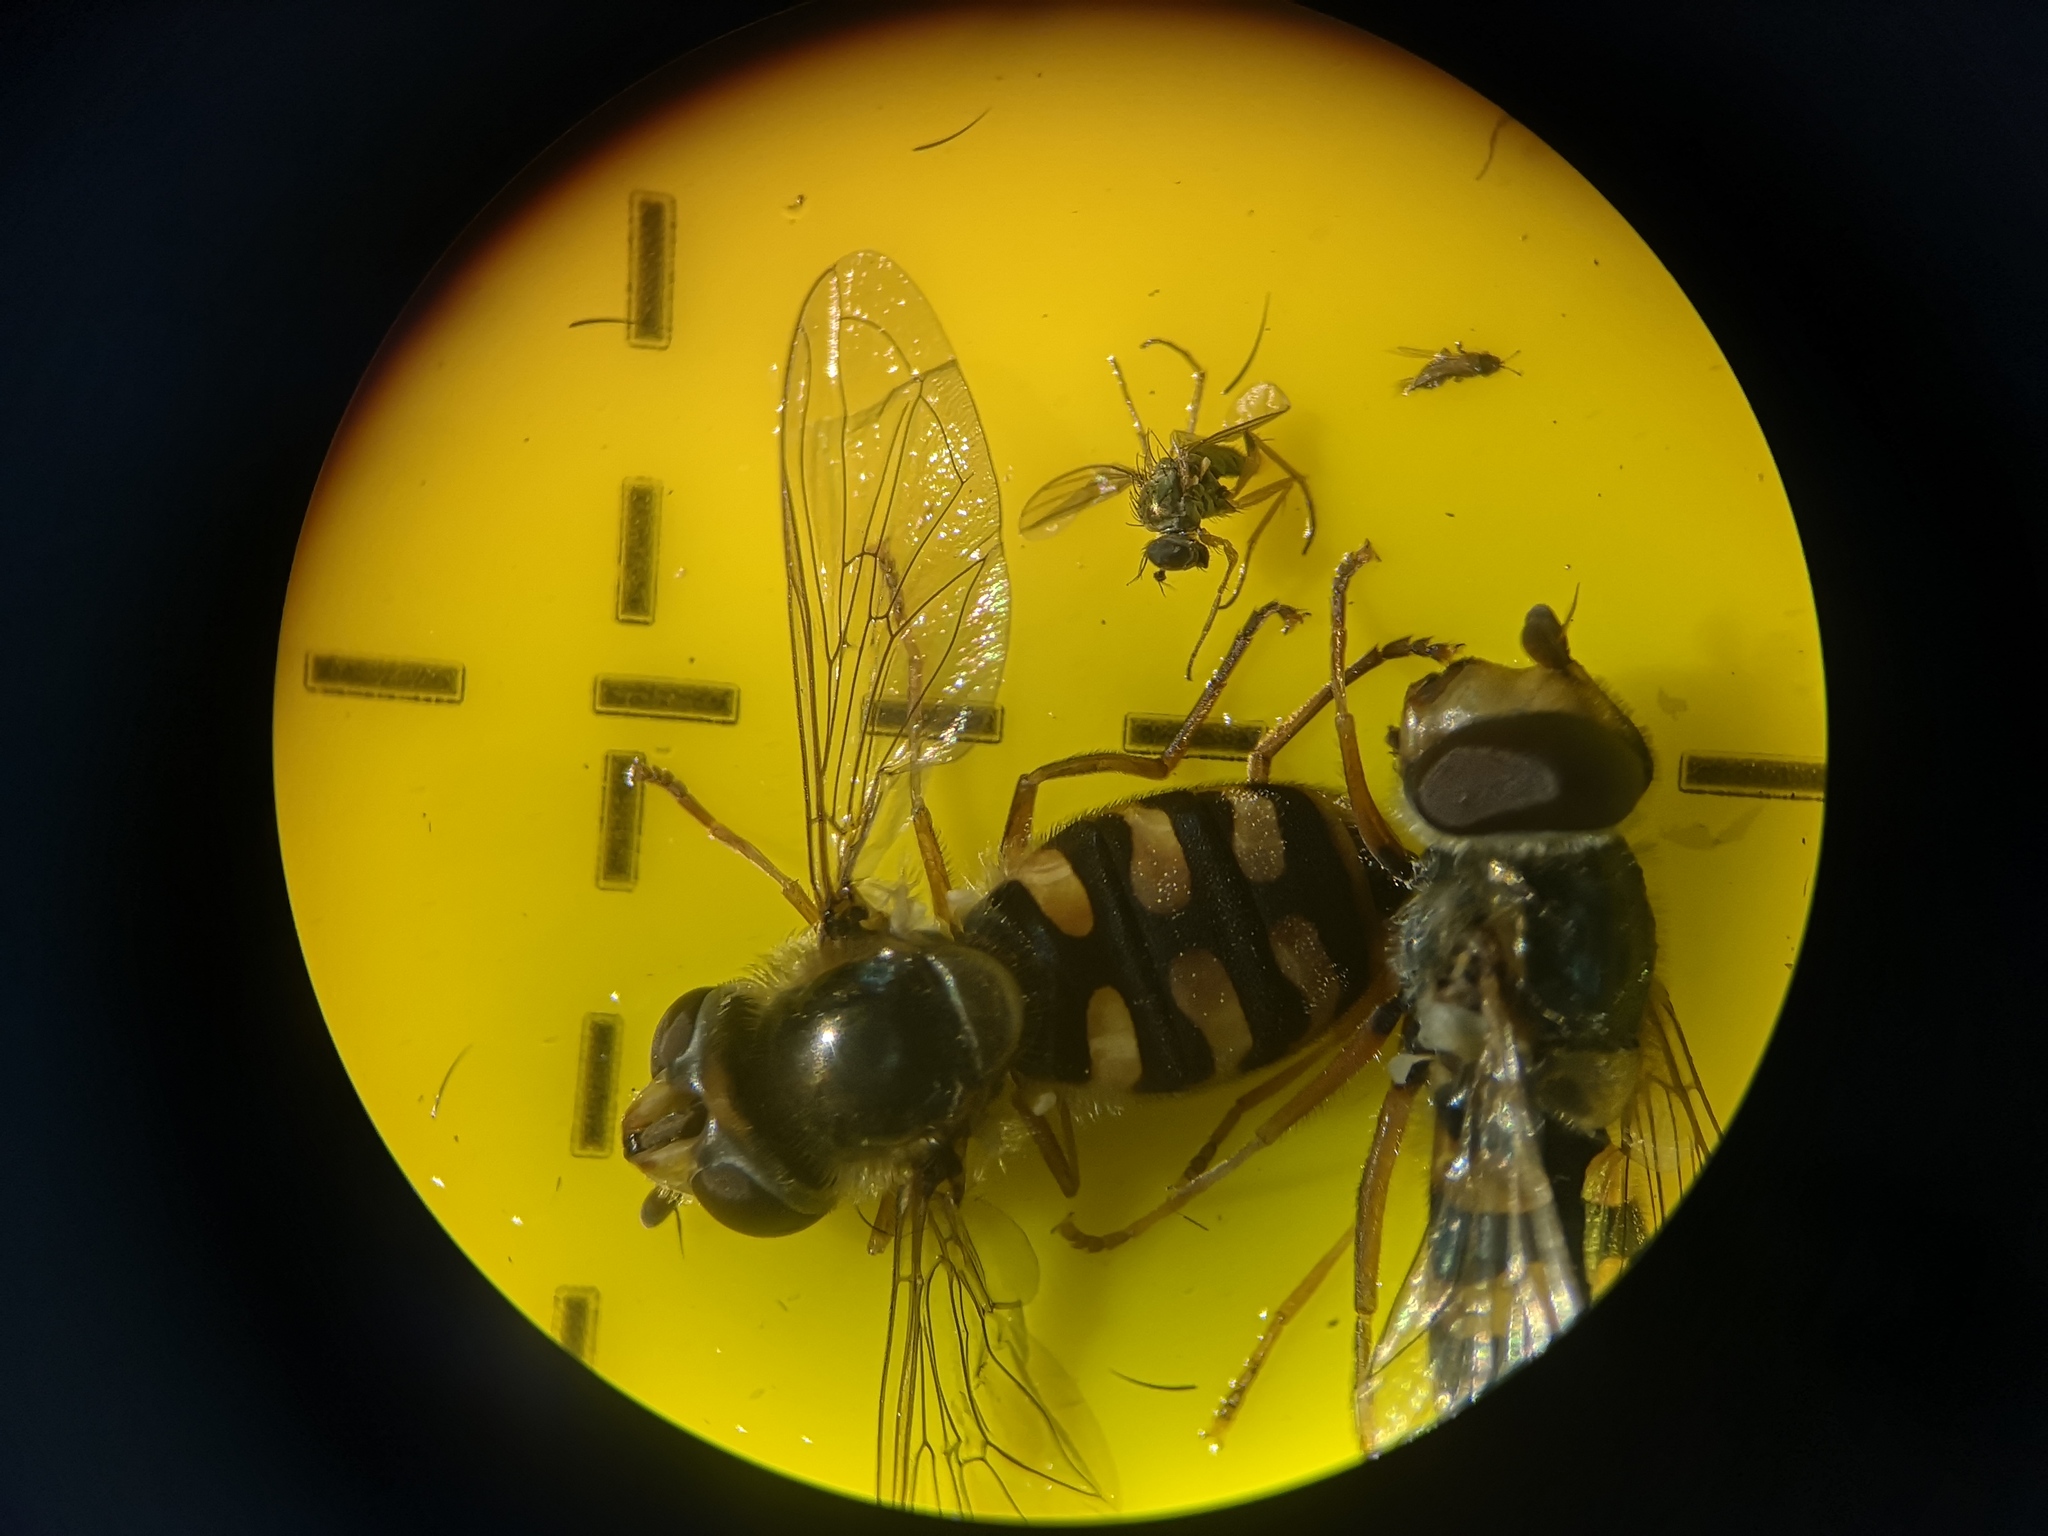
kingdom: Animalia
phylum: Arthropoda
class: Insecta
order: Diptera
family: Syrphidae
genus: Eupeodes
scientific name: Eupeodes corollae
